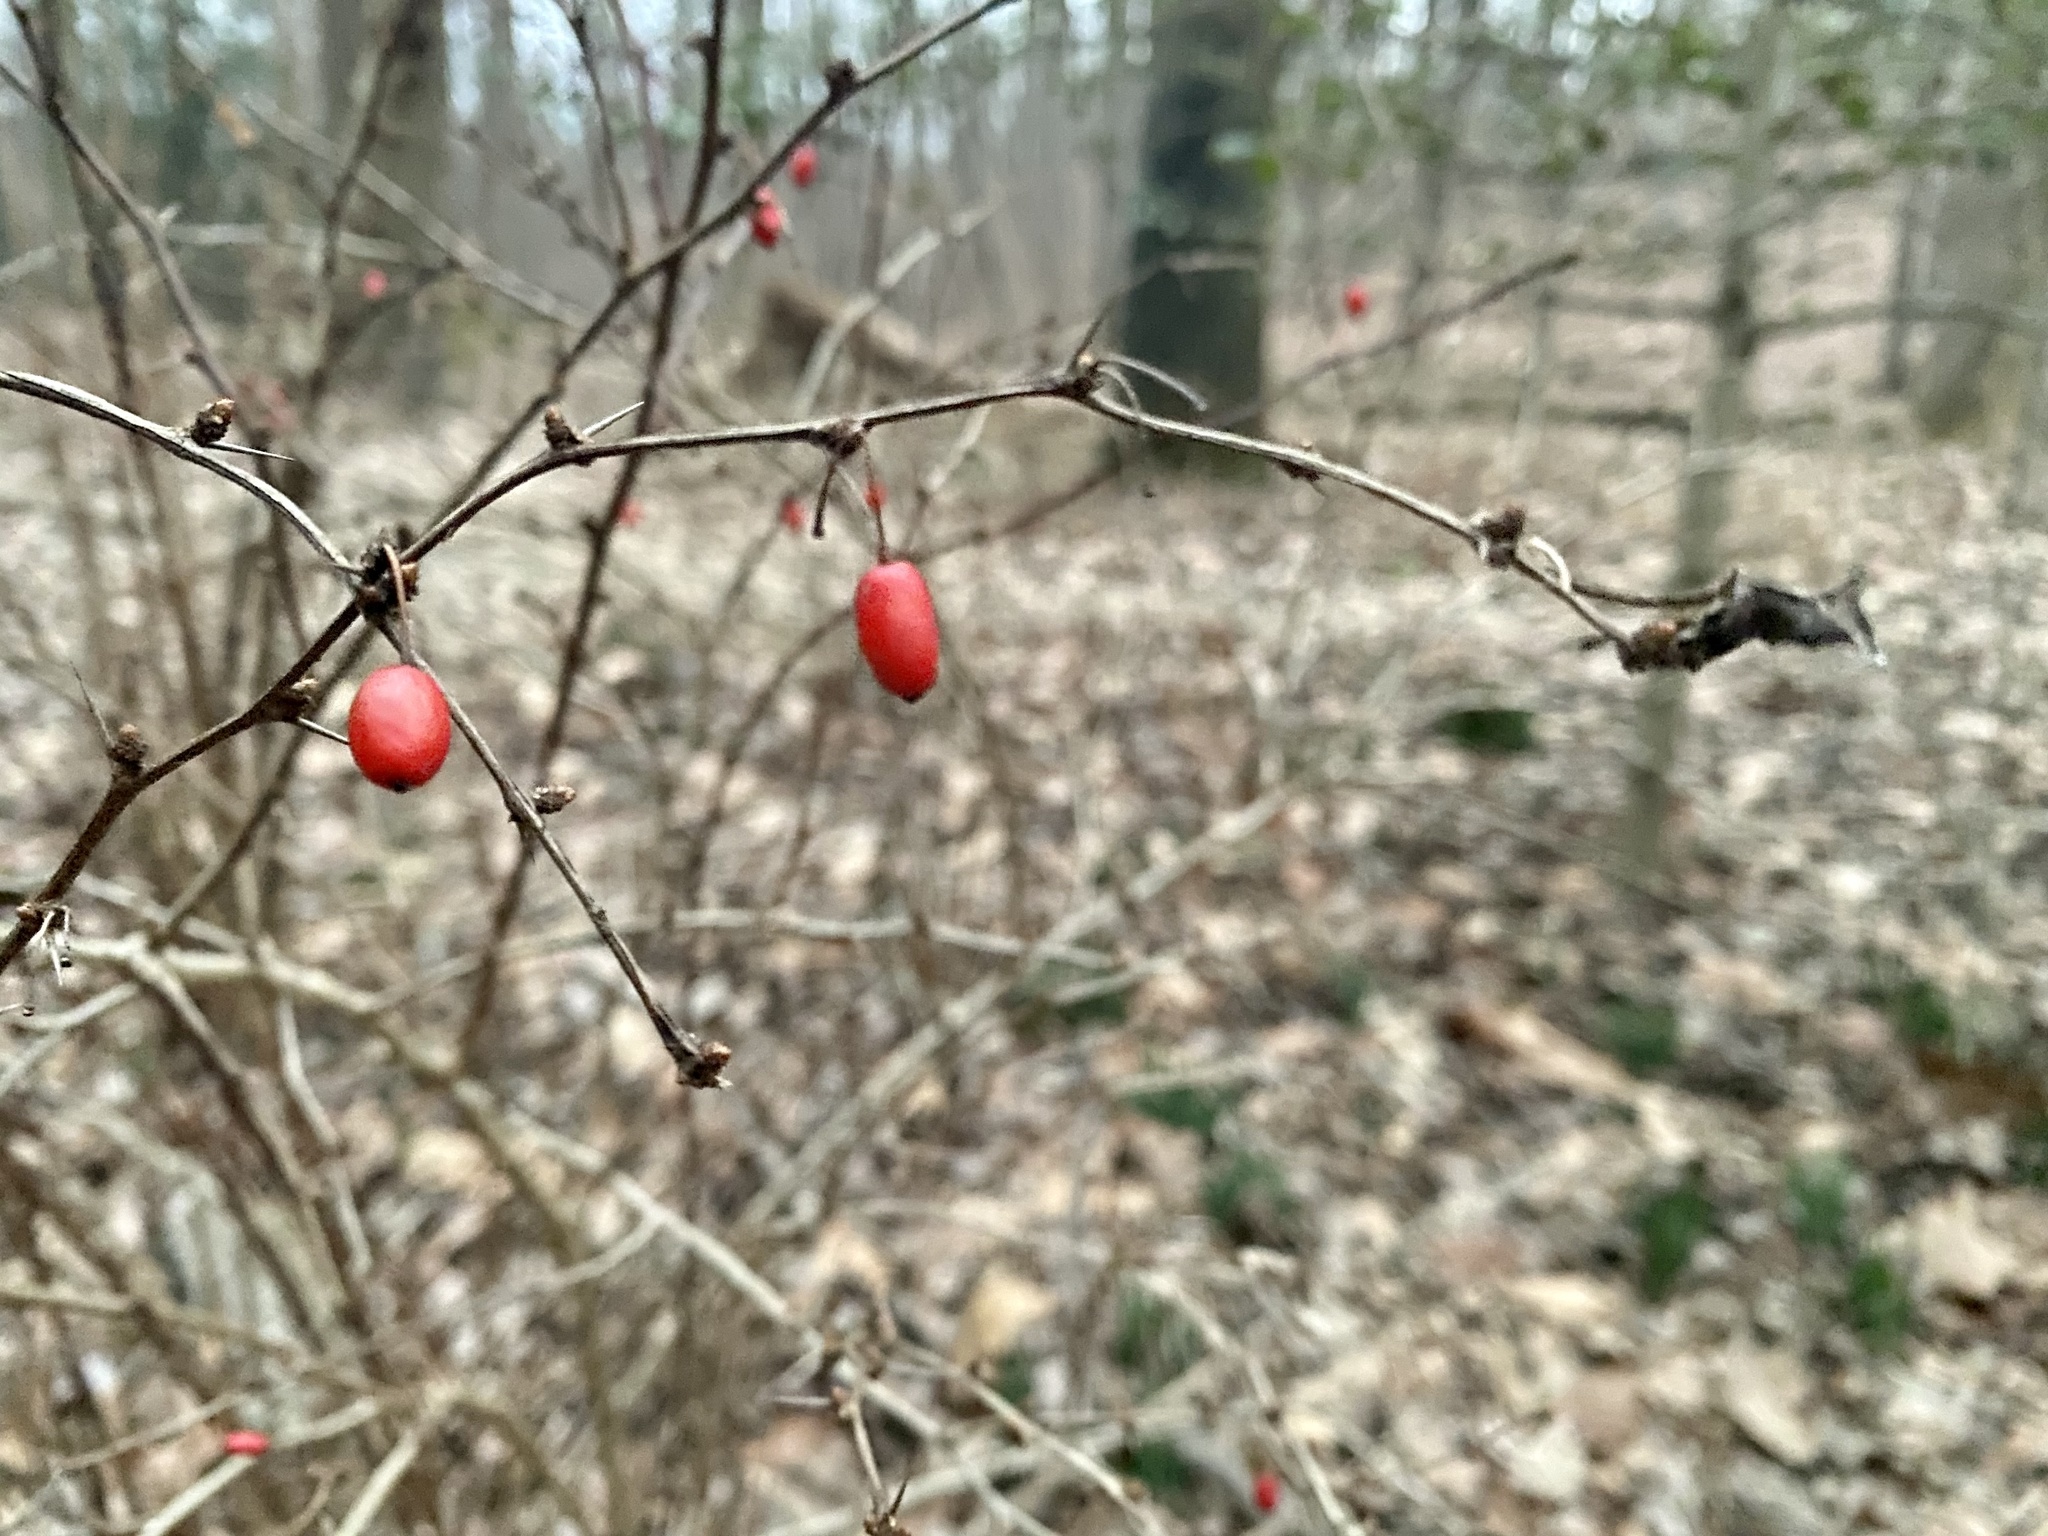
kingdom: Plantae
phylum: Tracheophyta
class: Magnoliopsida
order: Ranunculales
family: Berberidaceae
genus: Berberis
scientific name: Berberis thunbergii
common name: Japanese barberry
